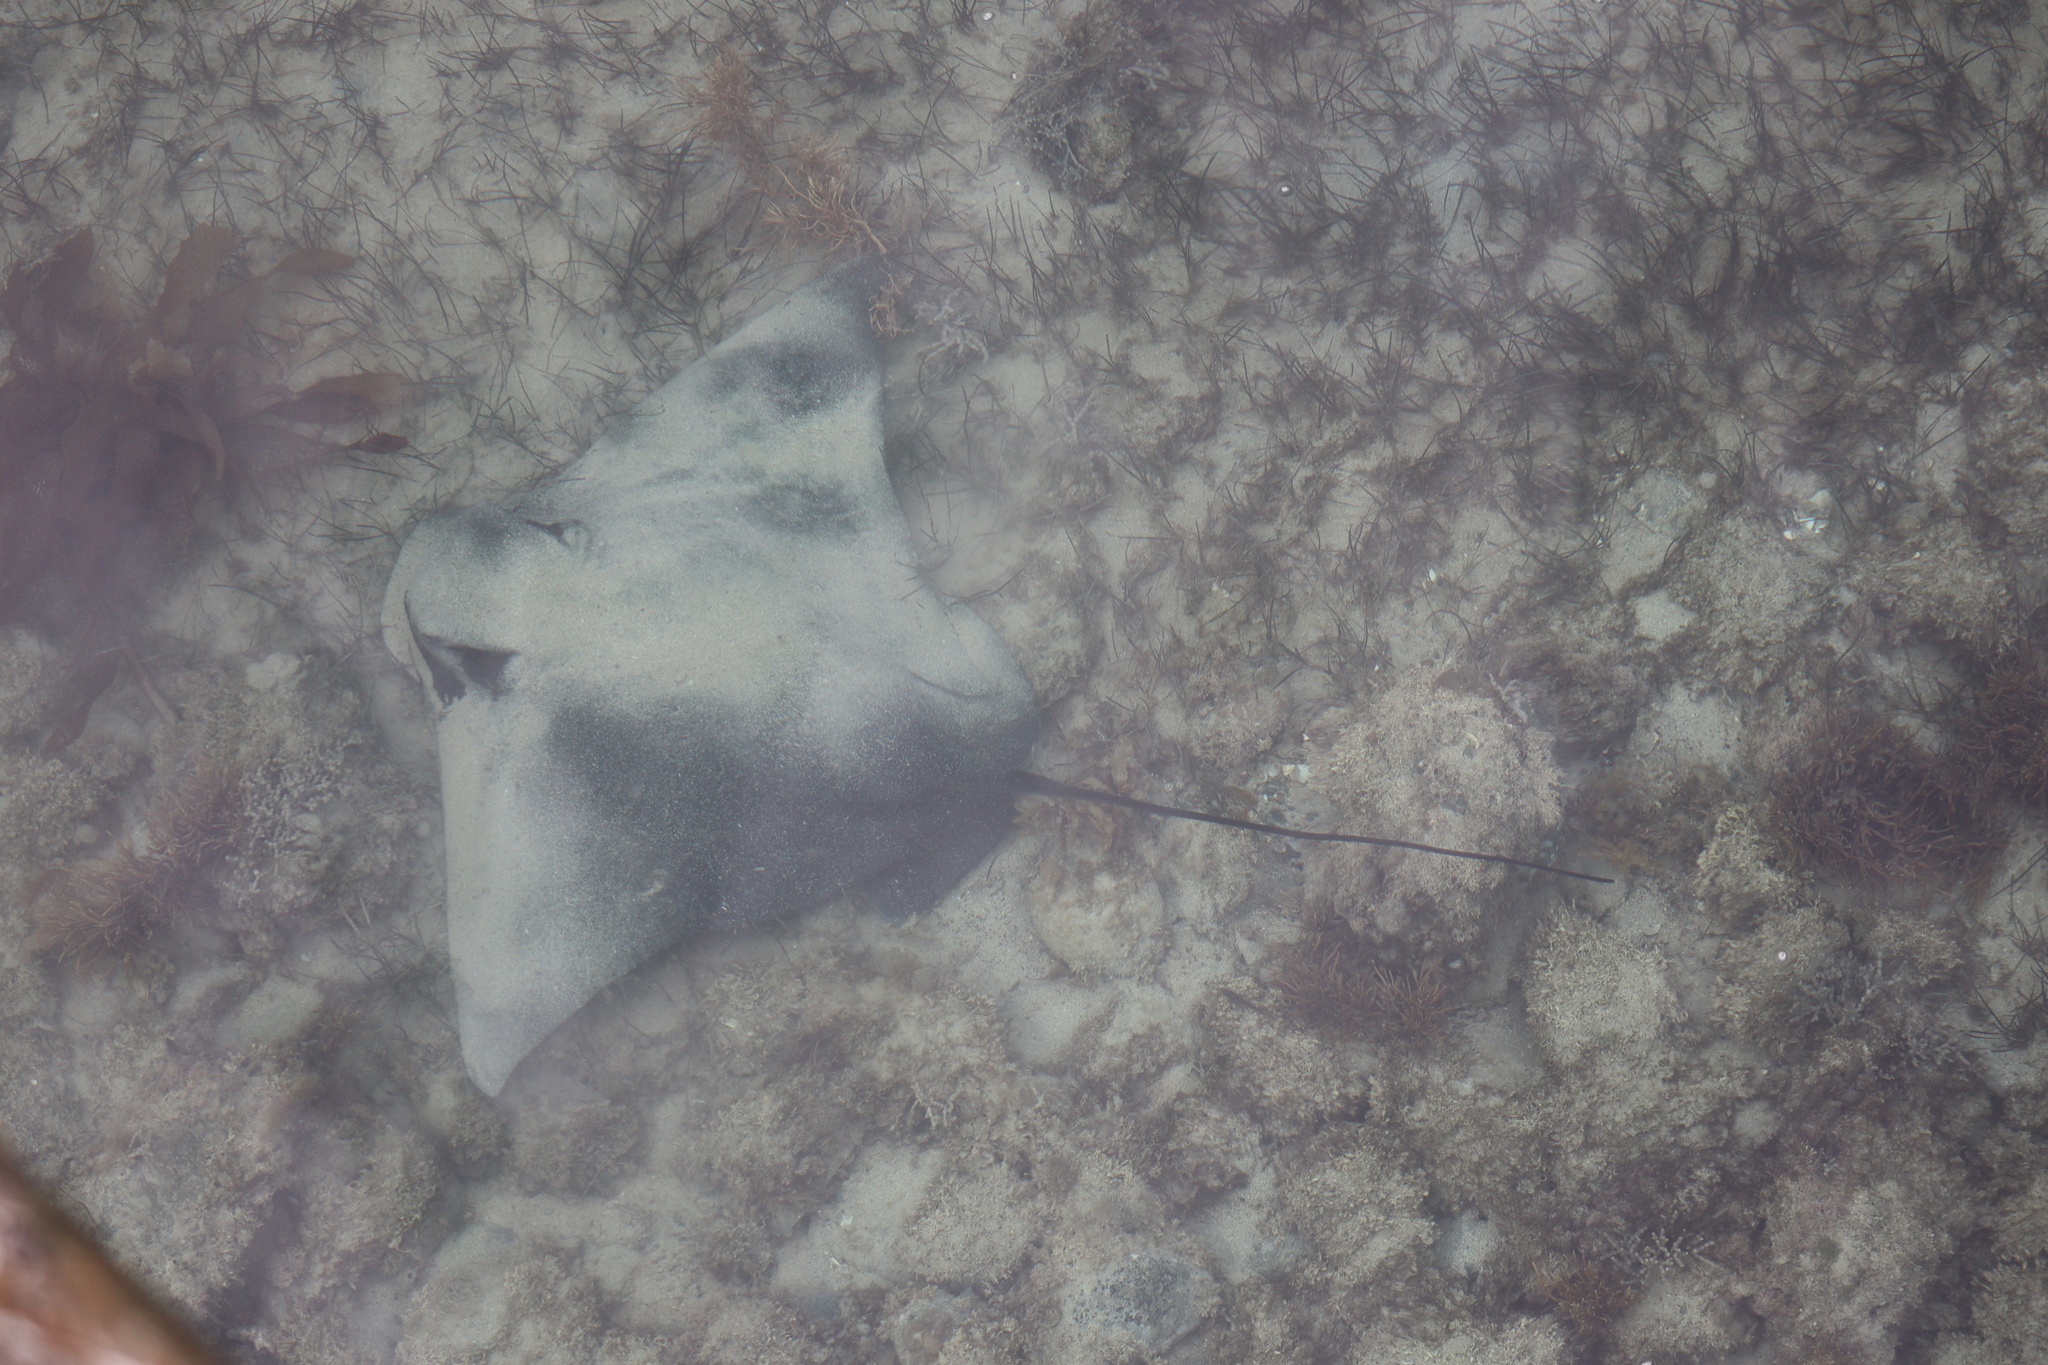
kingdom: Animalia
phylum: Chordata
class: Elasmobranchii
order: Myliobatiformes
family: Myliobatidae
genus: Myliobatis
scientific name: Myliobatis tenuicaudatus
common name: Eagle ray
